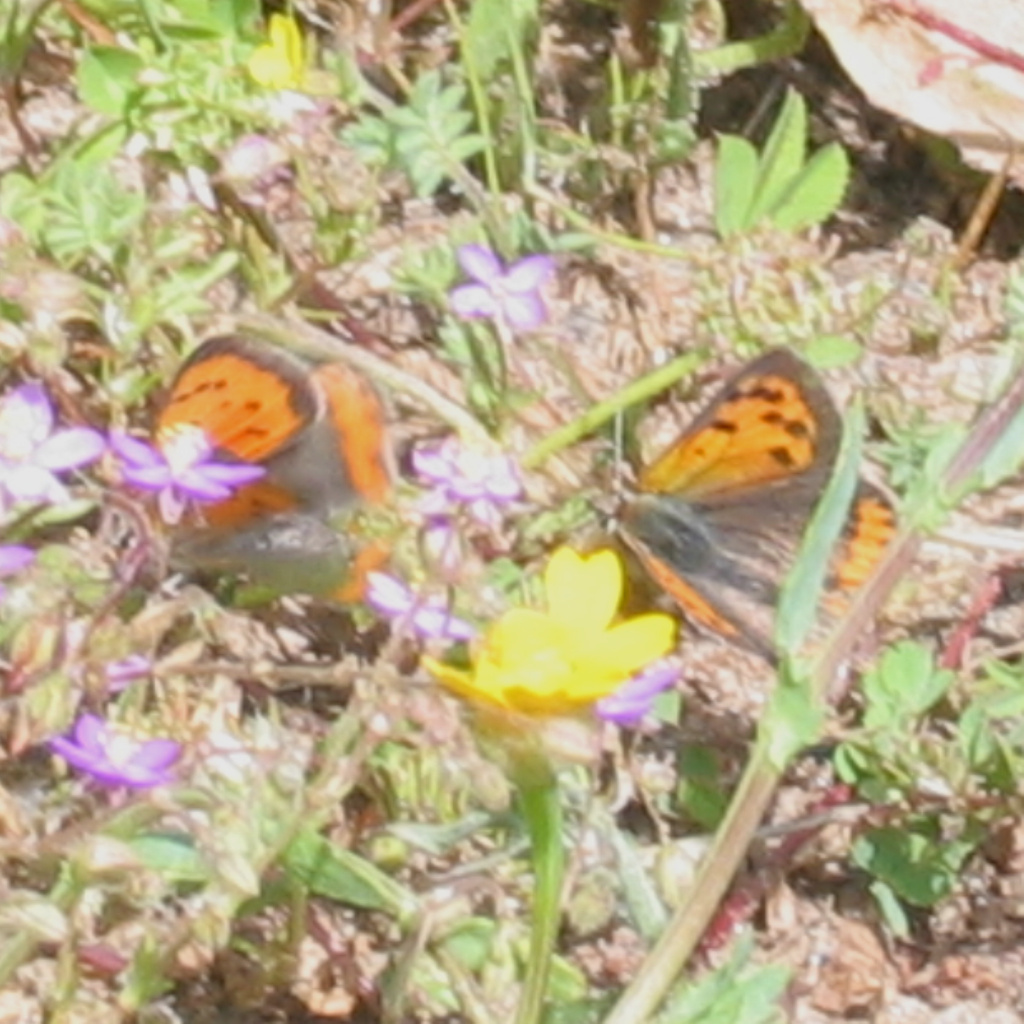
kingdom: Animalia
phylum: Arthropoda
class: Insecta
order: Lepidoptera
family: Lycaenidae
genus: Lycaena
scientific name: Lycaena phlaeas
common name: Small copper
